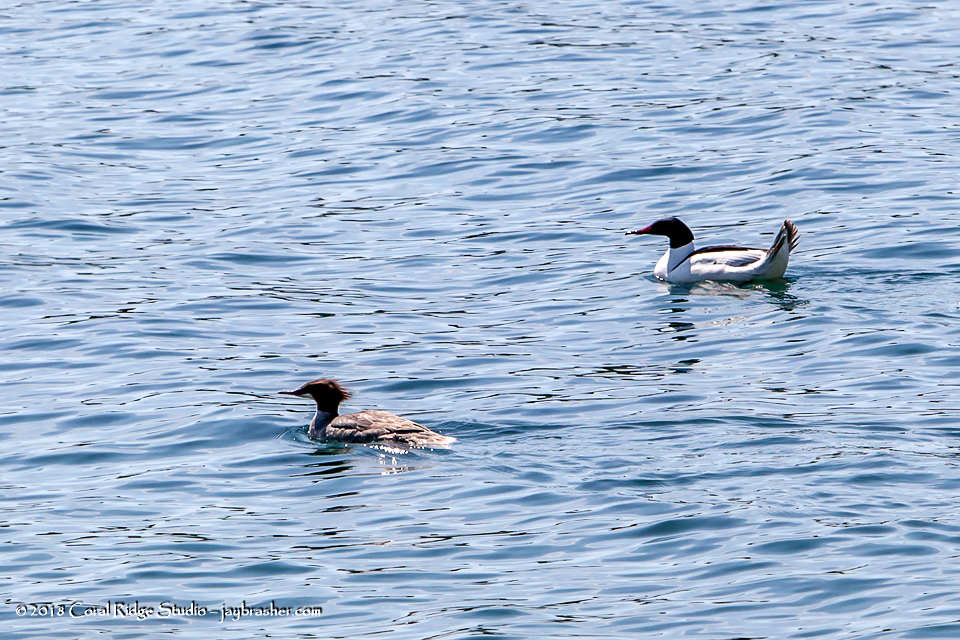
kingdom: Animalia
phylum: Chordata
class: Aves
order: Anseriformes
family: Anatidae
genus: Mergus
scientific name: Mergus merganser
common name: Common merganser
